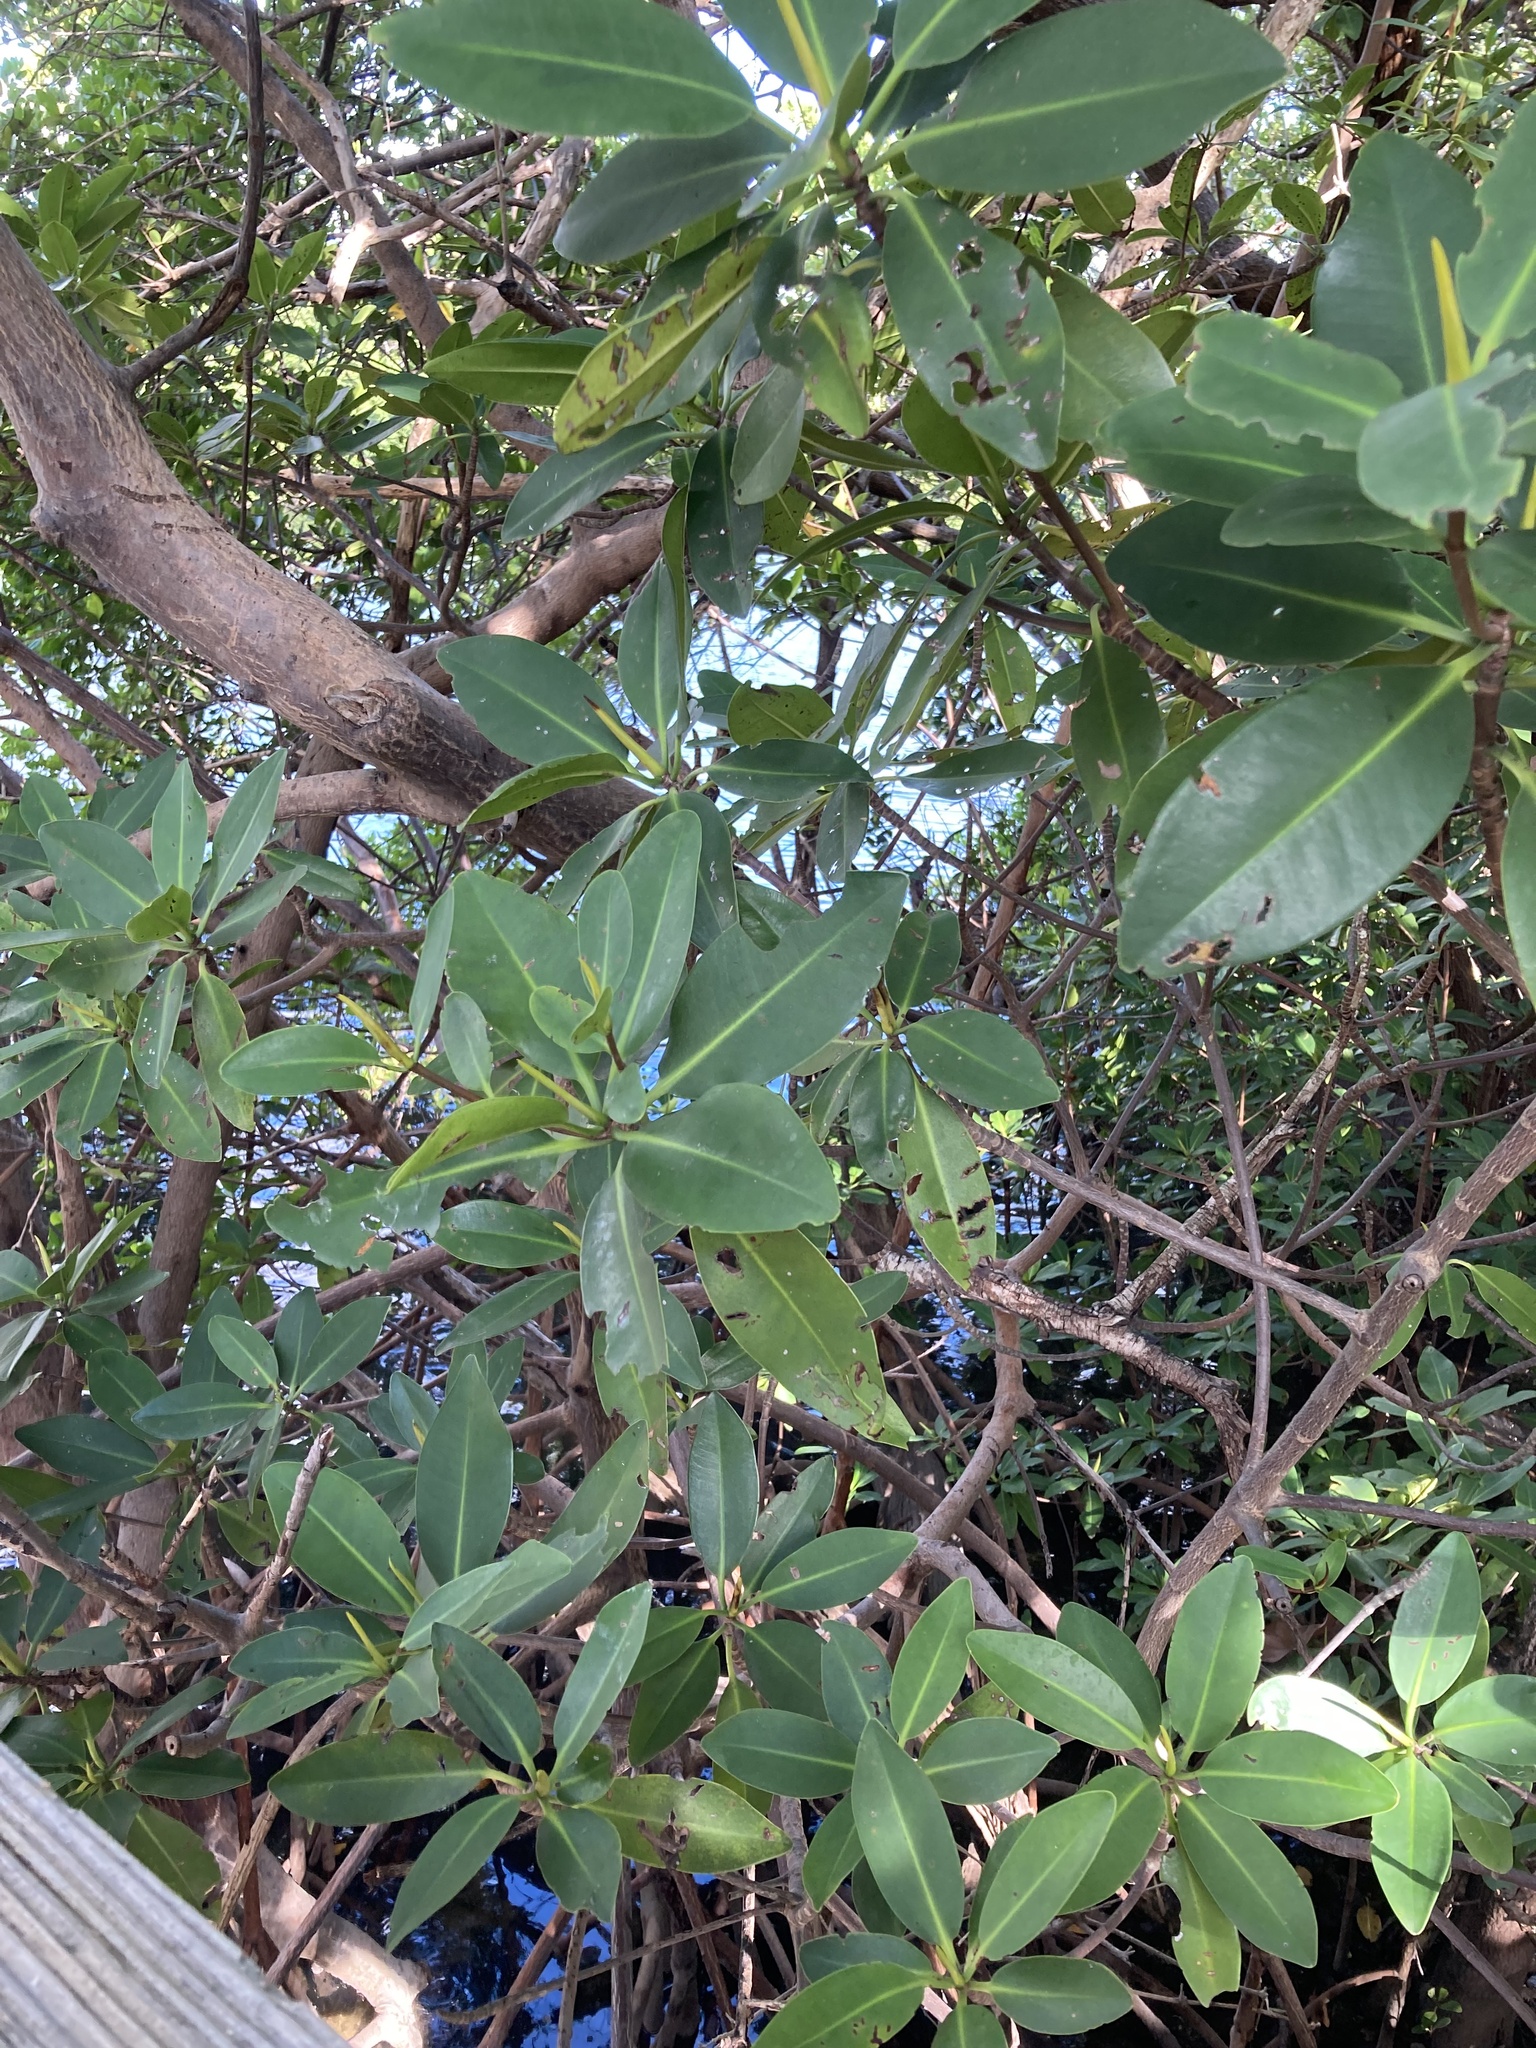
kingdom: Plantae
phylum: Tracheophyta
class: Magnoliopsida
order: Malpighiales
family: Rhizophoraceae
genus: Rhizophora
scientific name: Rhizophora mangle
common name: Red mangrove
